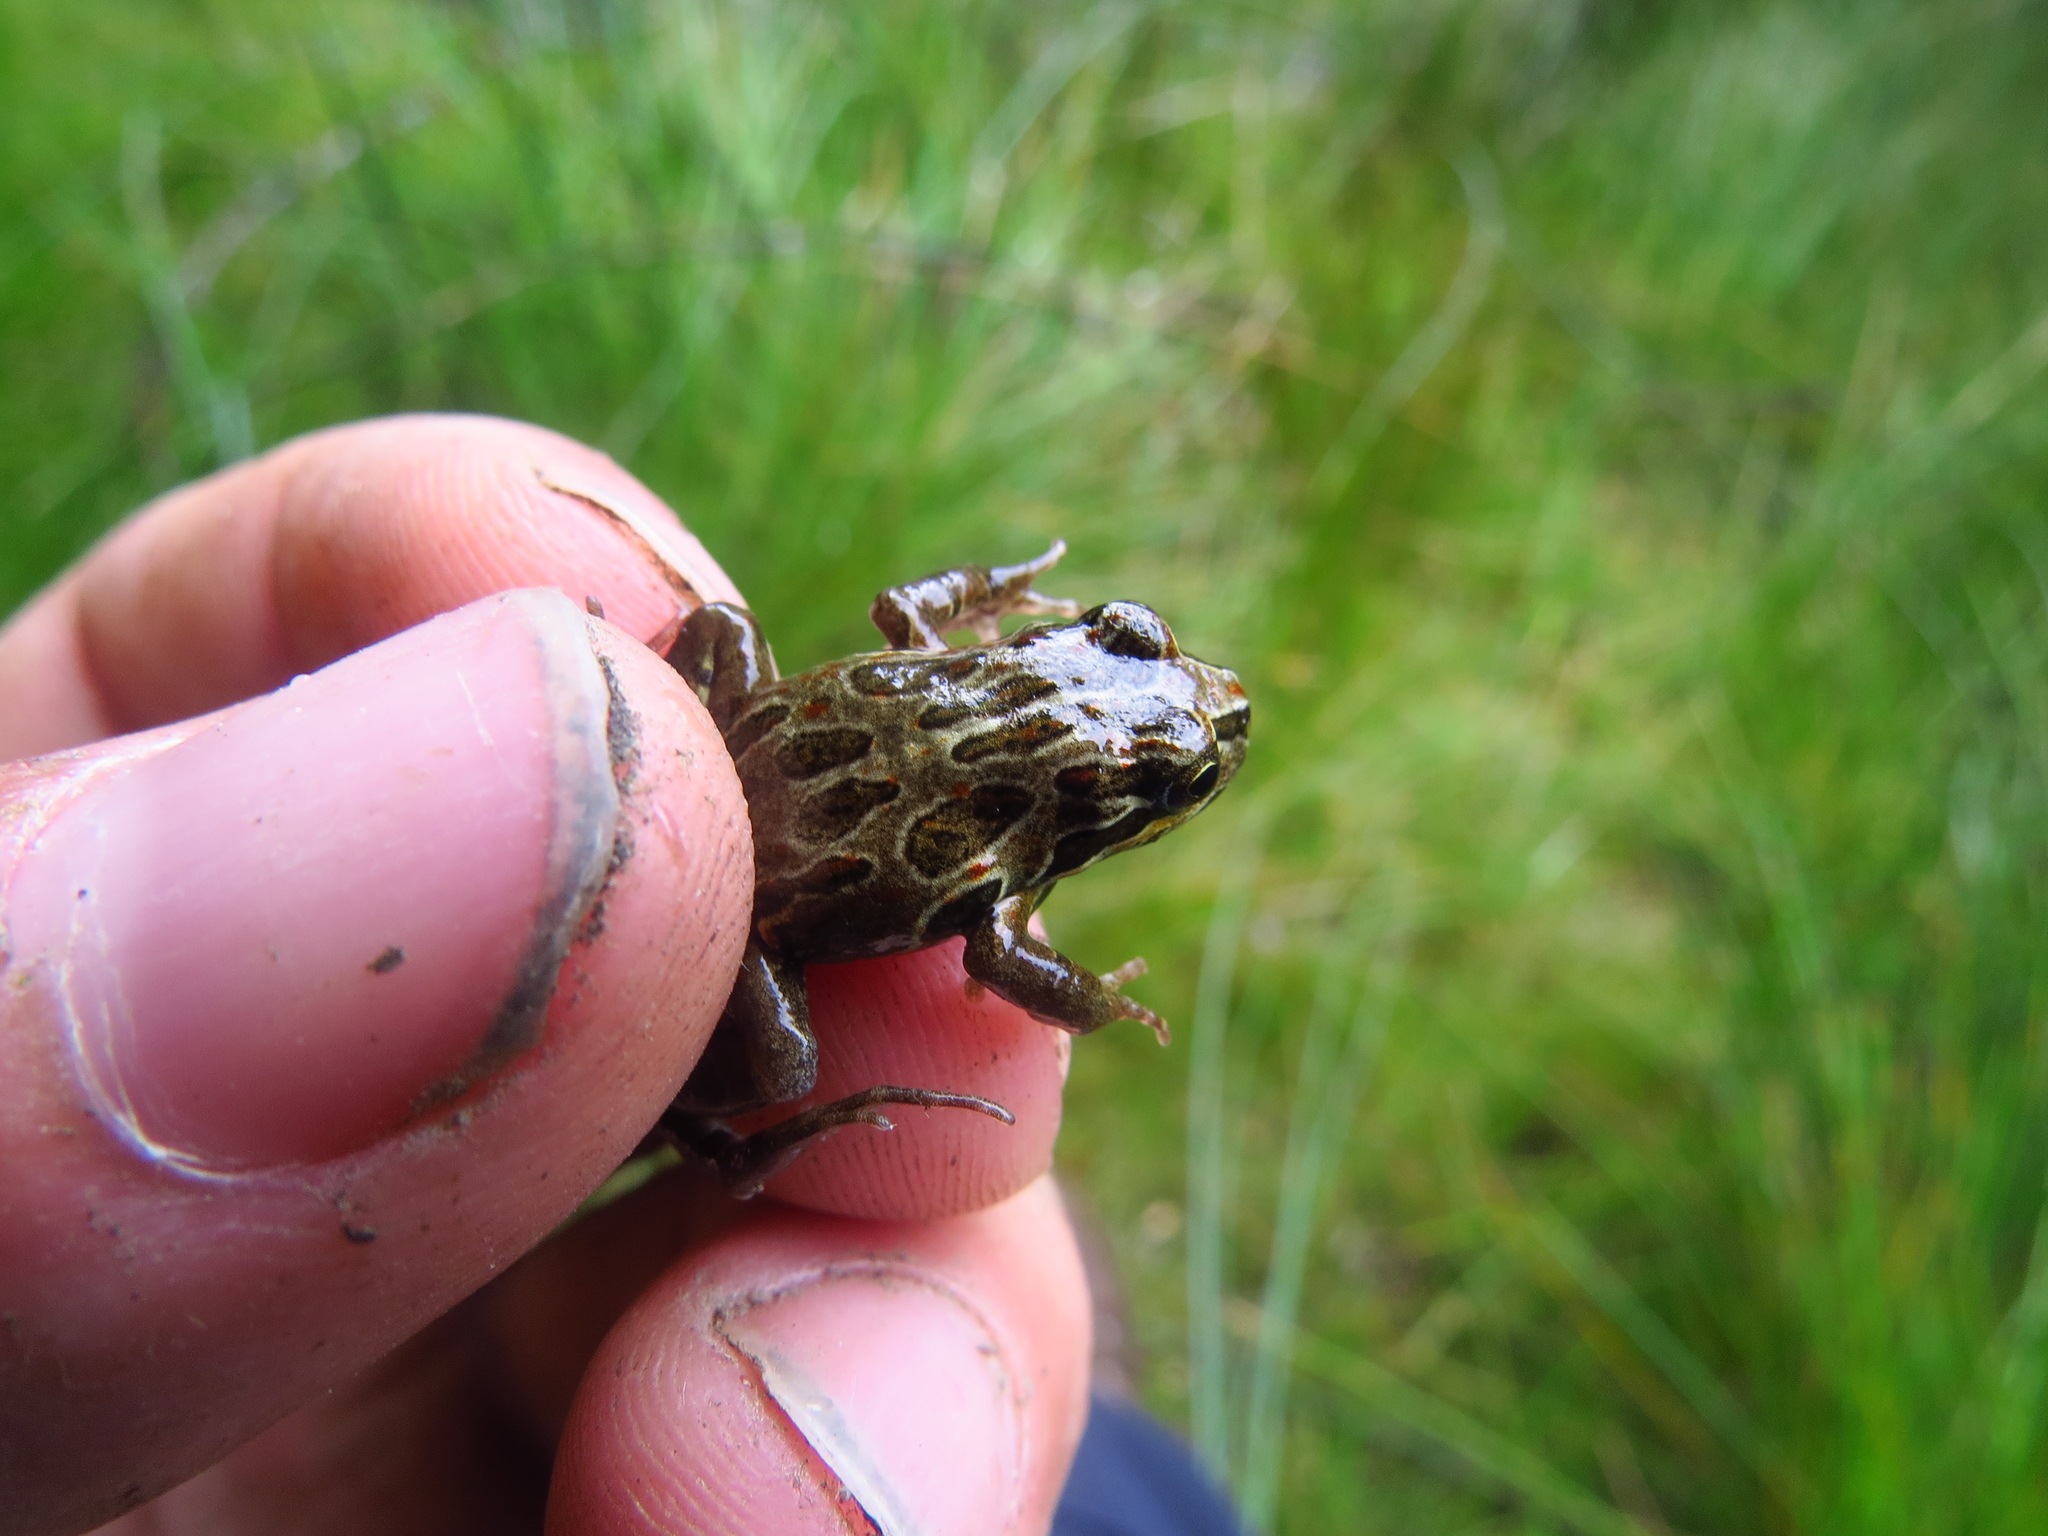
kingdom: Animalia
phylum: Chordata
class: Amphibia
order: Anura
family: Leptodactylidae
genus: Pleurodema
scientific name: Pleurodema thaul
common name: Chile four-eyed frog
